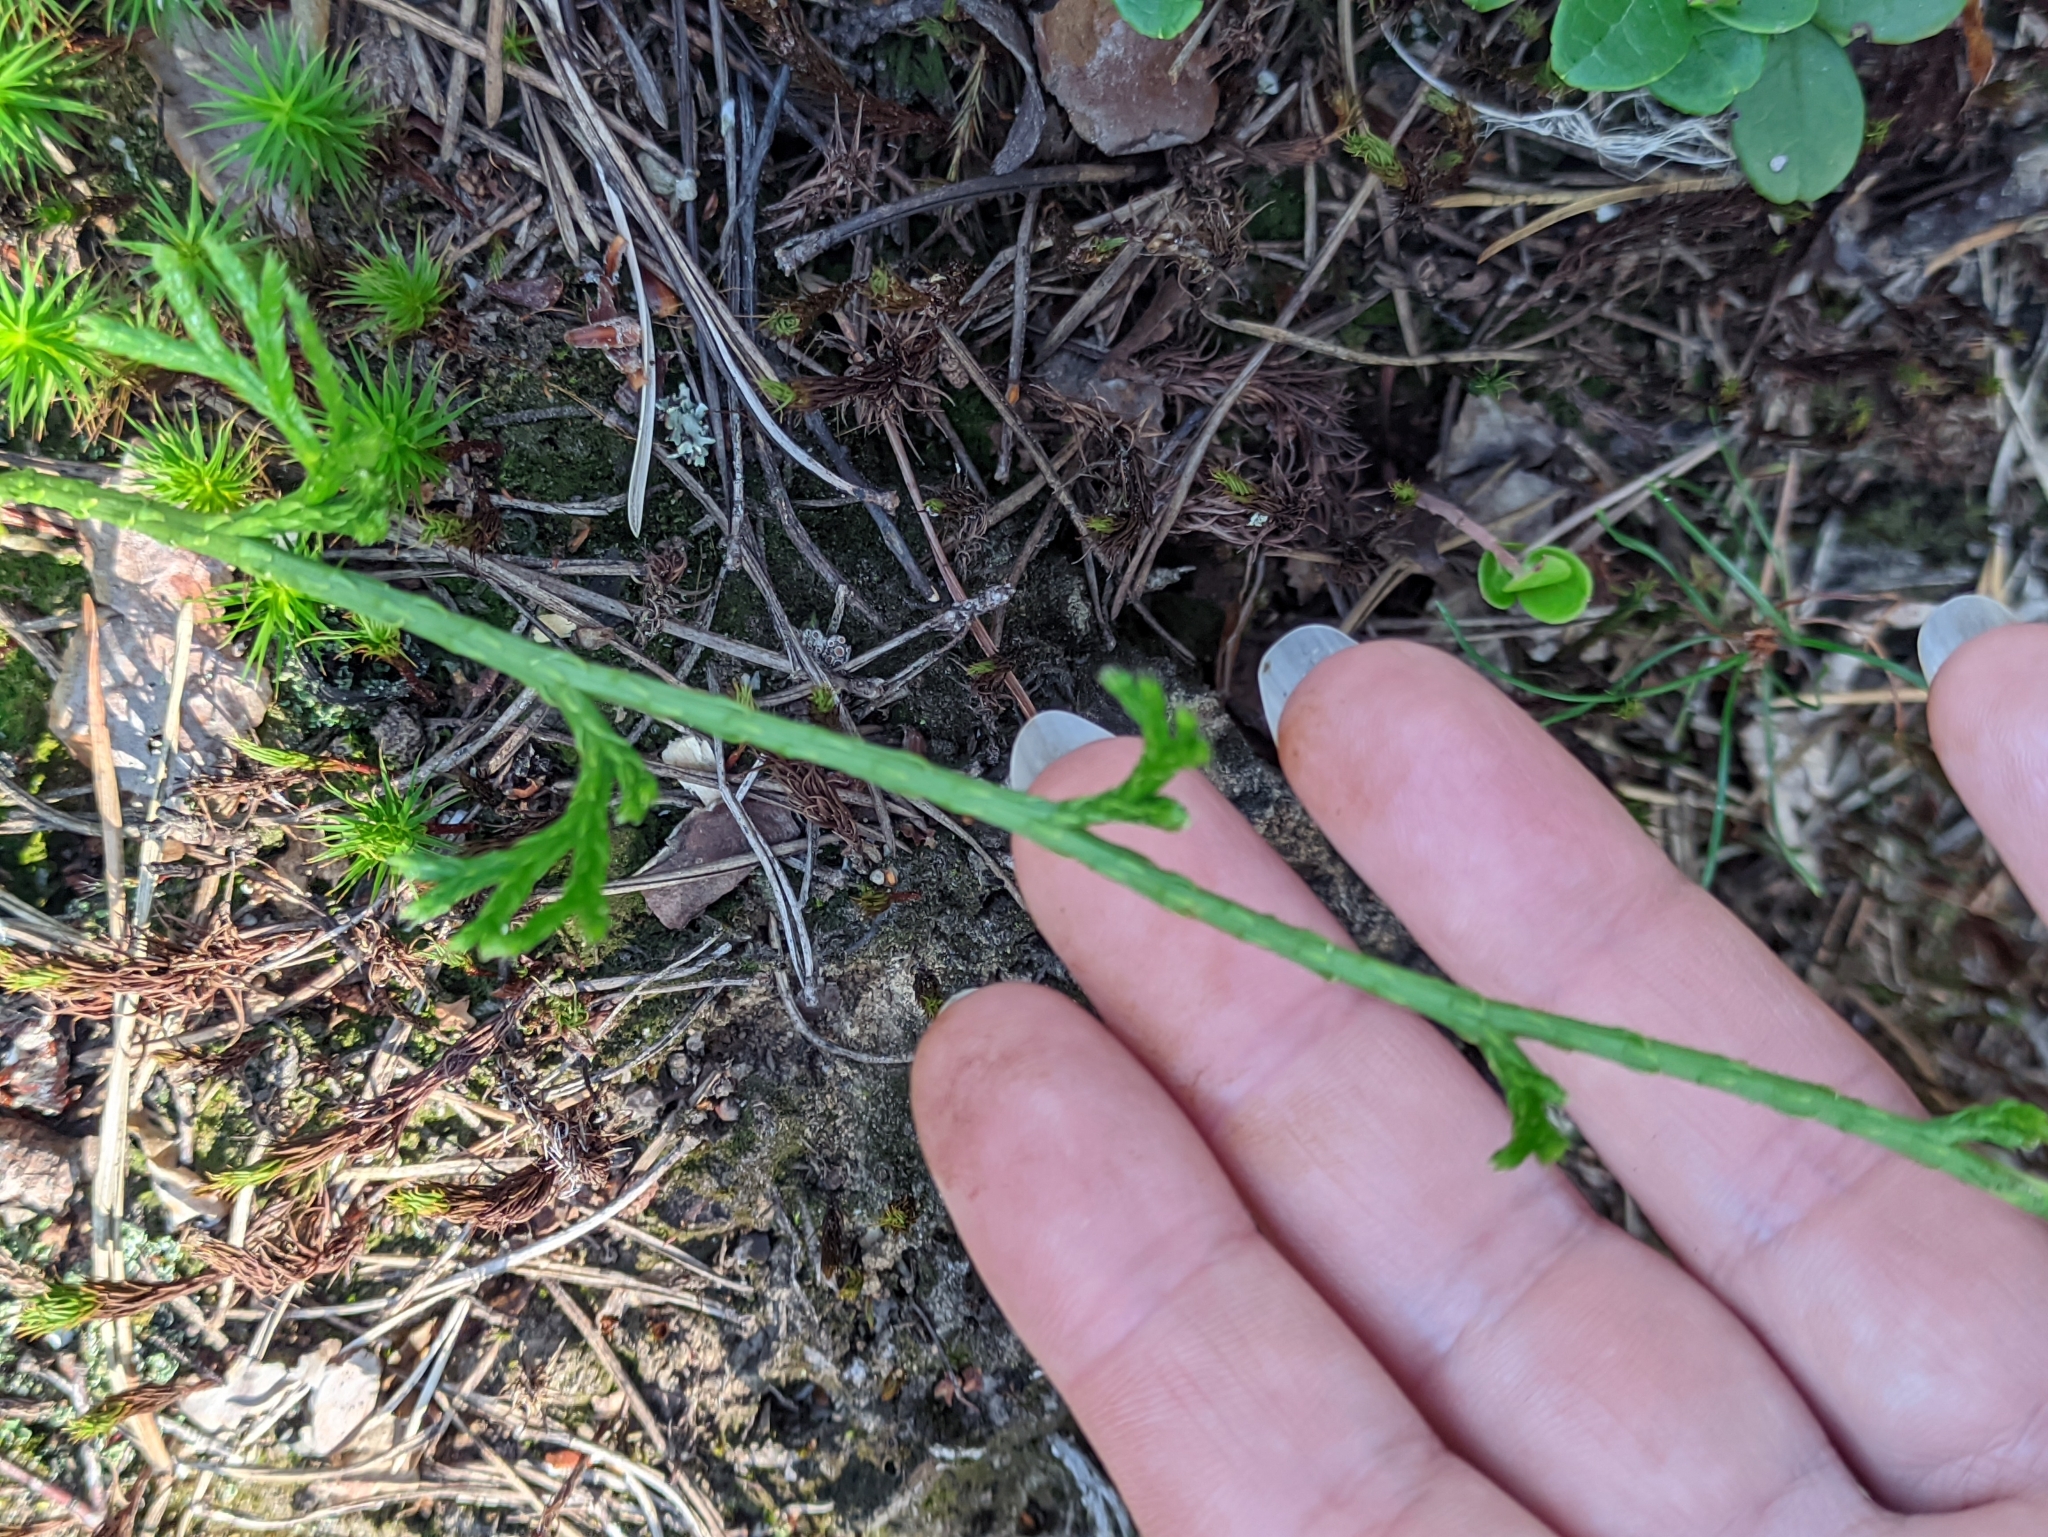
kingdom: Plantae
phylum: Tracheophyta
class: Lycopodiopsida
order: Lycopodiales
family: Lycopodiaceae
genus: Diphasiastrum
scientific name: Diphasiastrum complanatum
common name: Northern running-pine
